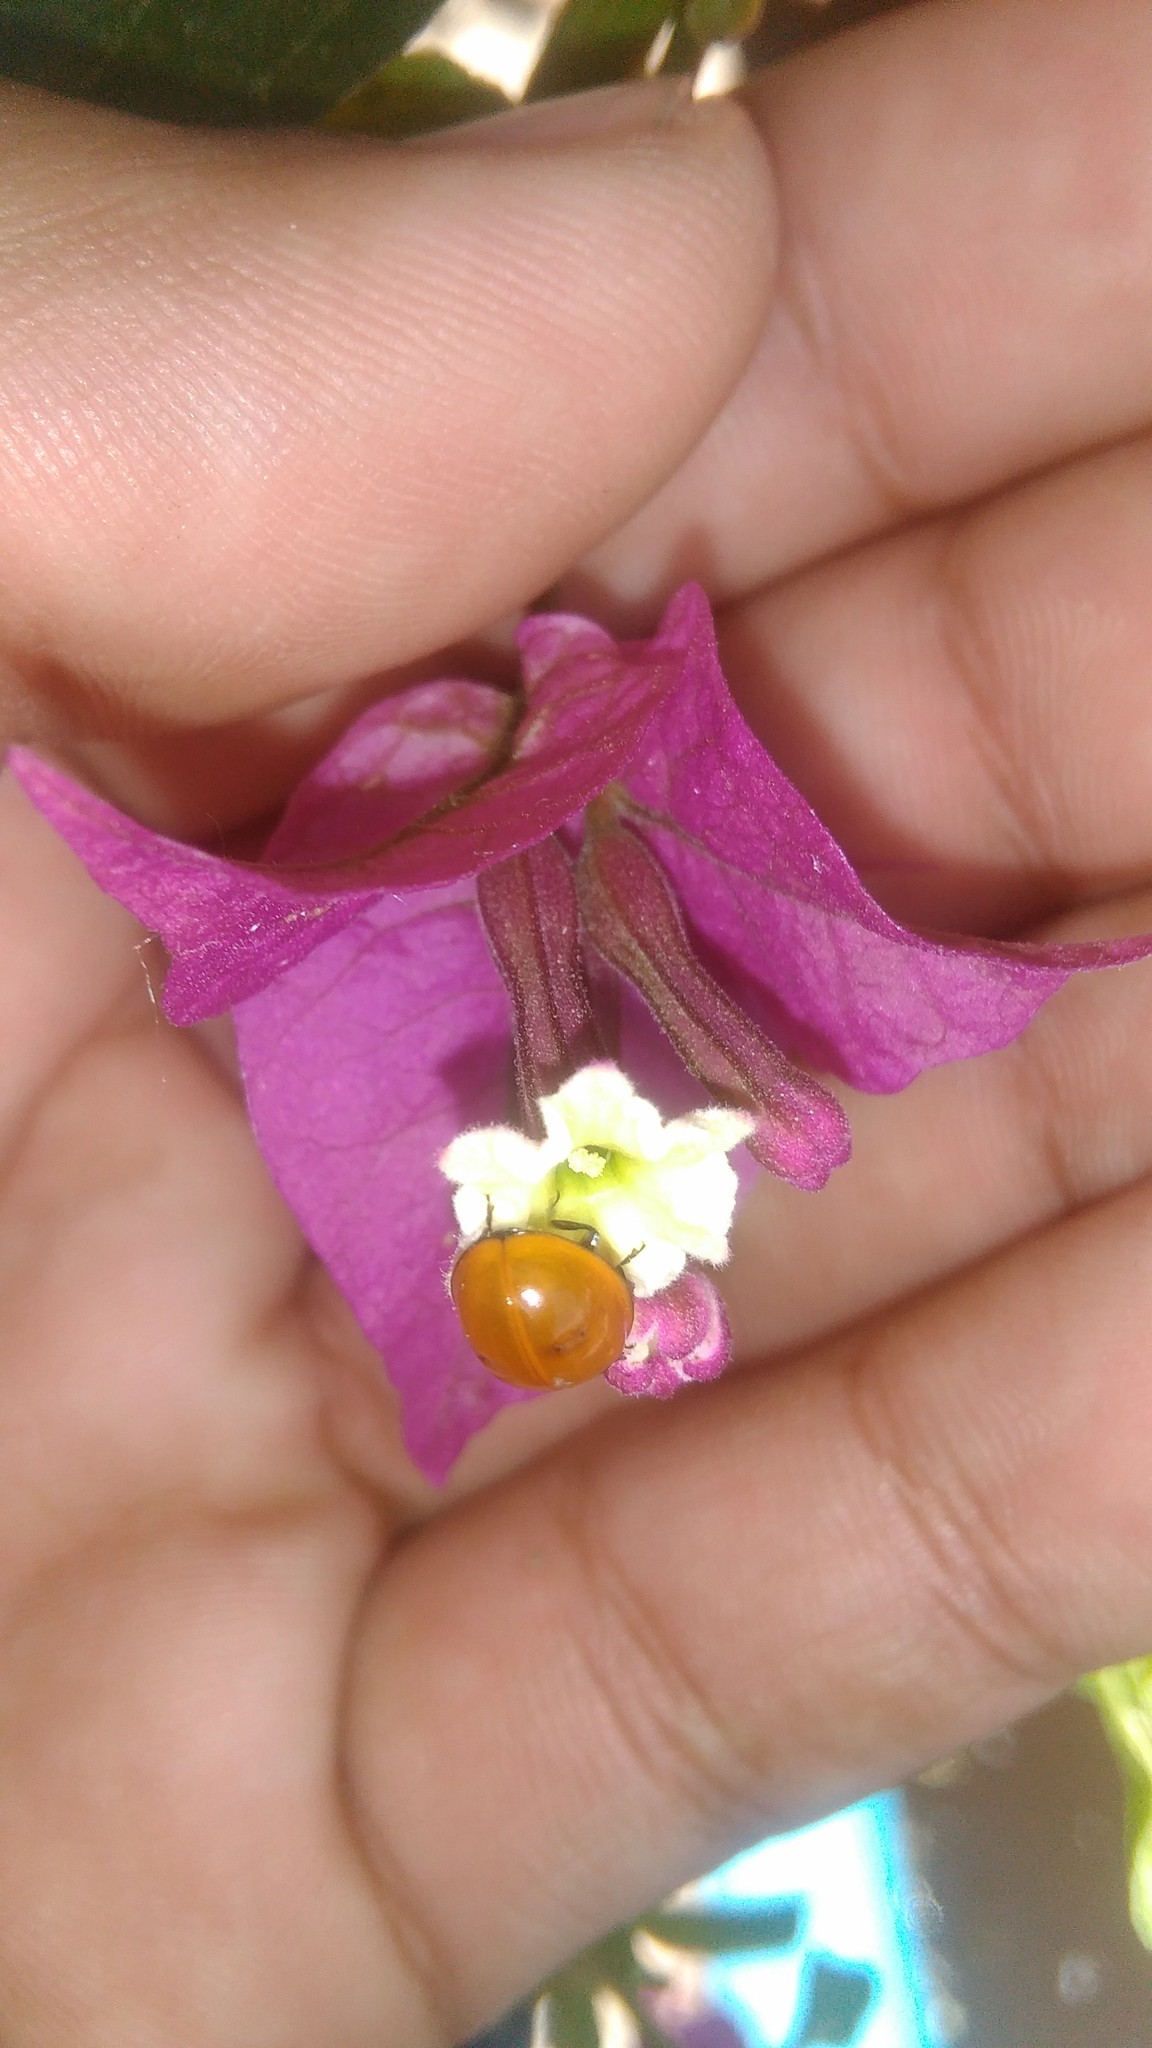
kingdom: Animalia
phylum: Arthropoda
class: Insecta
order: Coleoptera
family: Coccinellidae
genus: Cycloneda
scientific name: Cycloneda sanguinea
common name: Ladybird beetle
